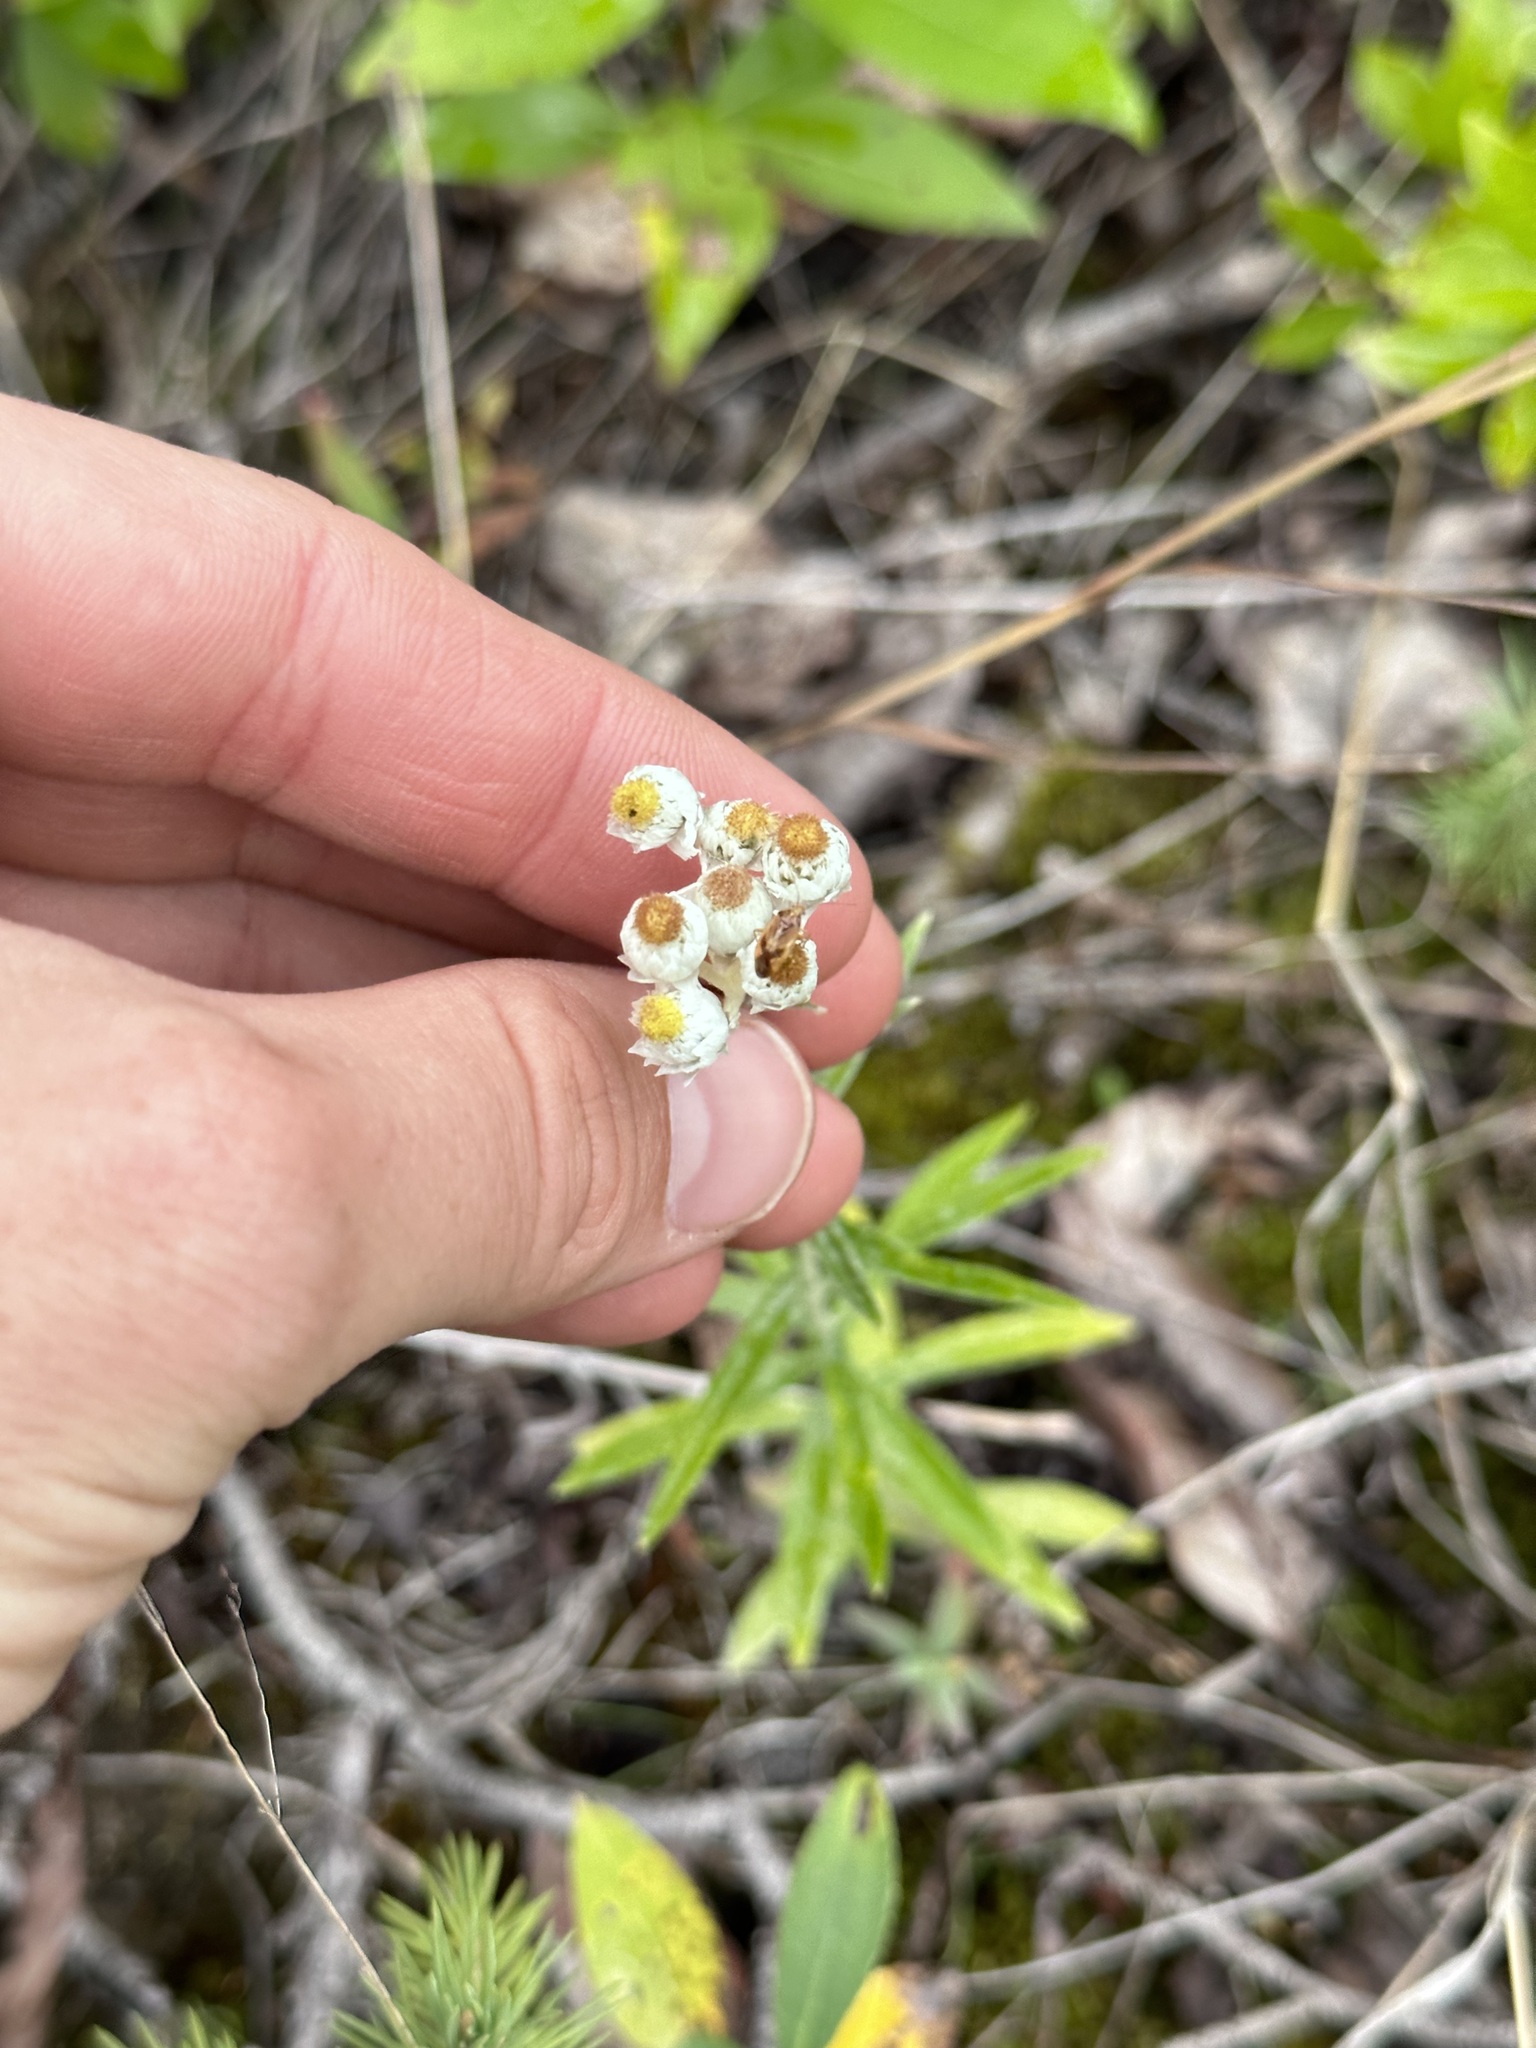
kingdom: Plantae
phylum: Tracheophyta
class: Magnoliopsida
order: Asterales
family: Asteraceae
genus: Anaphalis
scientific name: Anaphalis margaritacea
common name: Pearly everlasting
